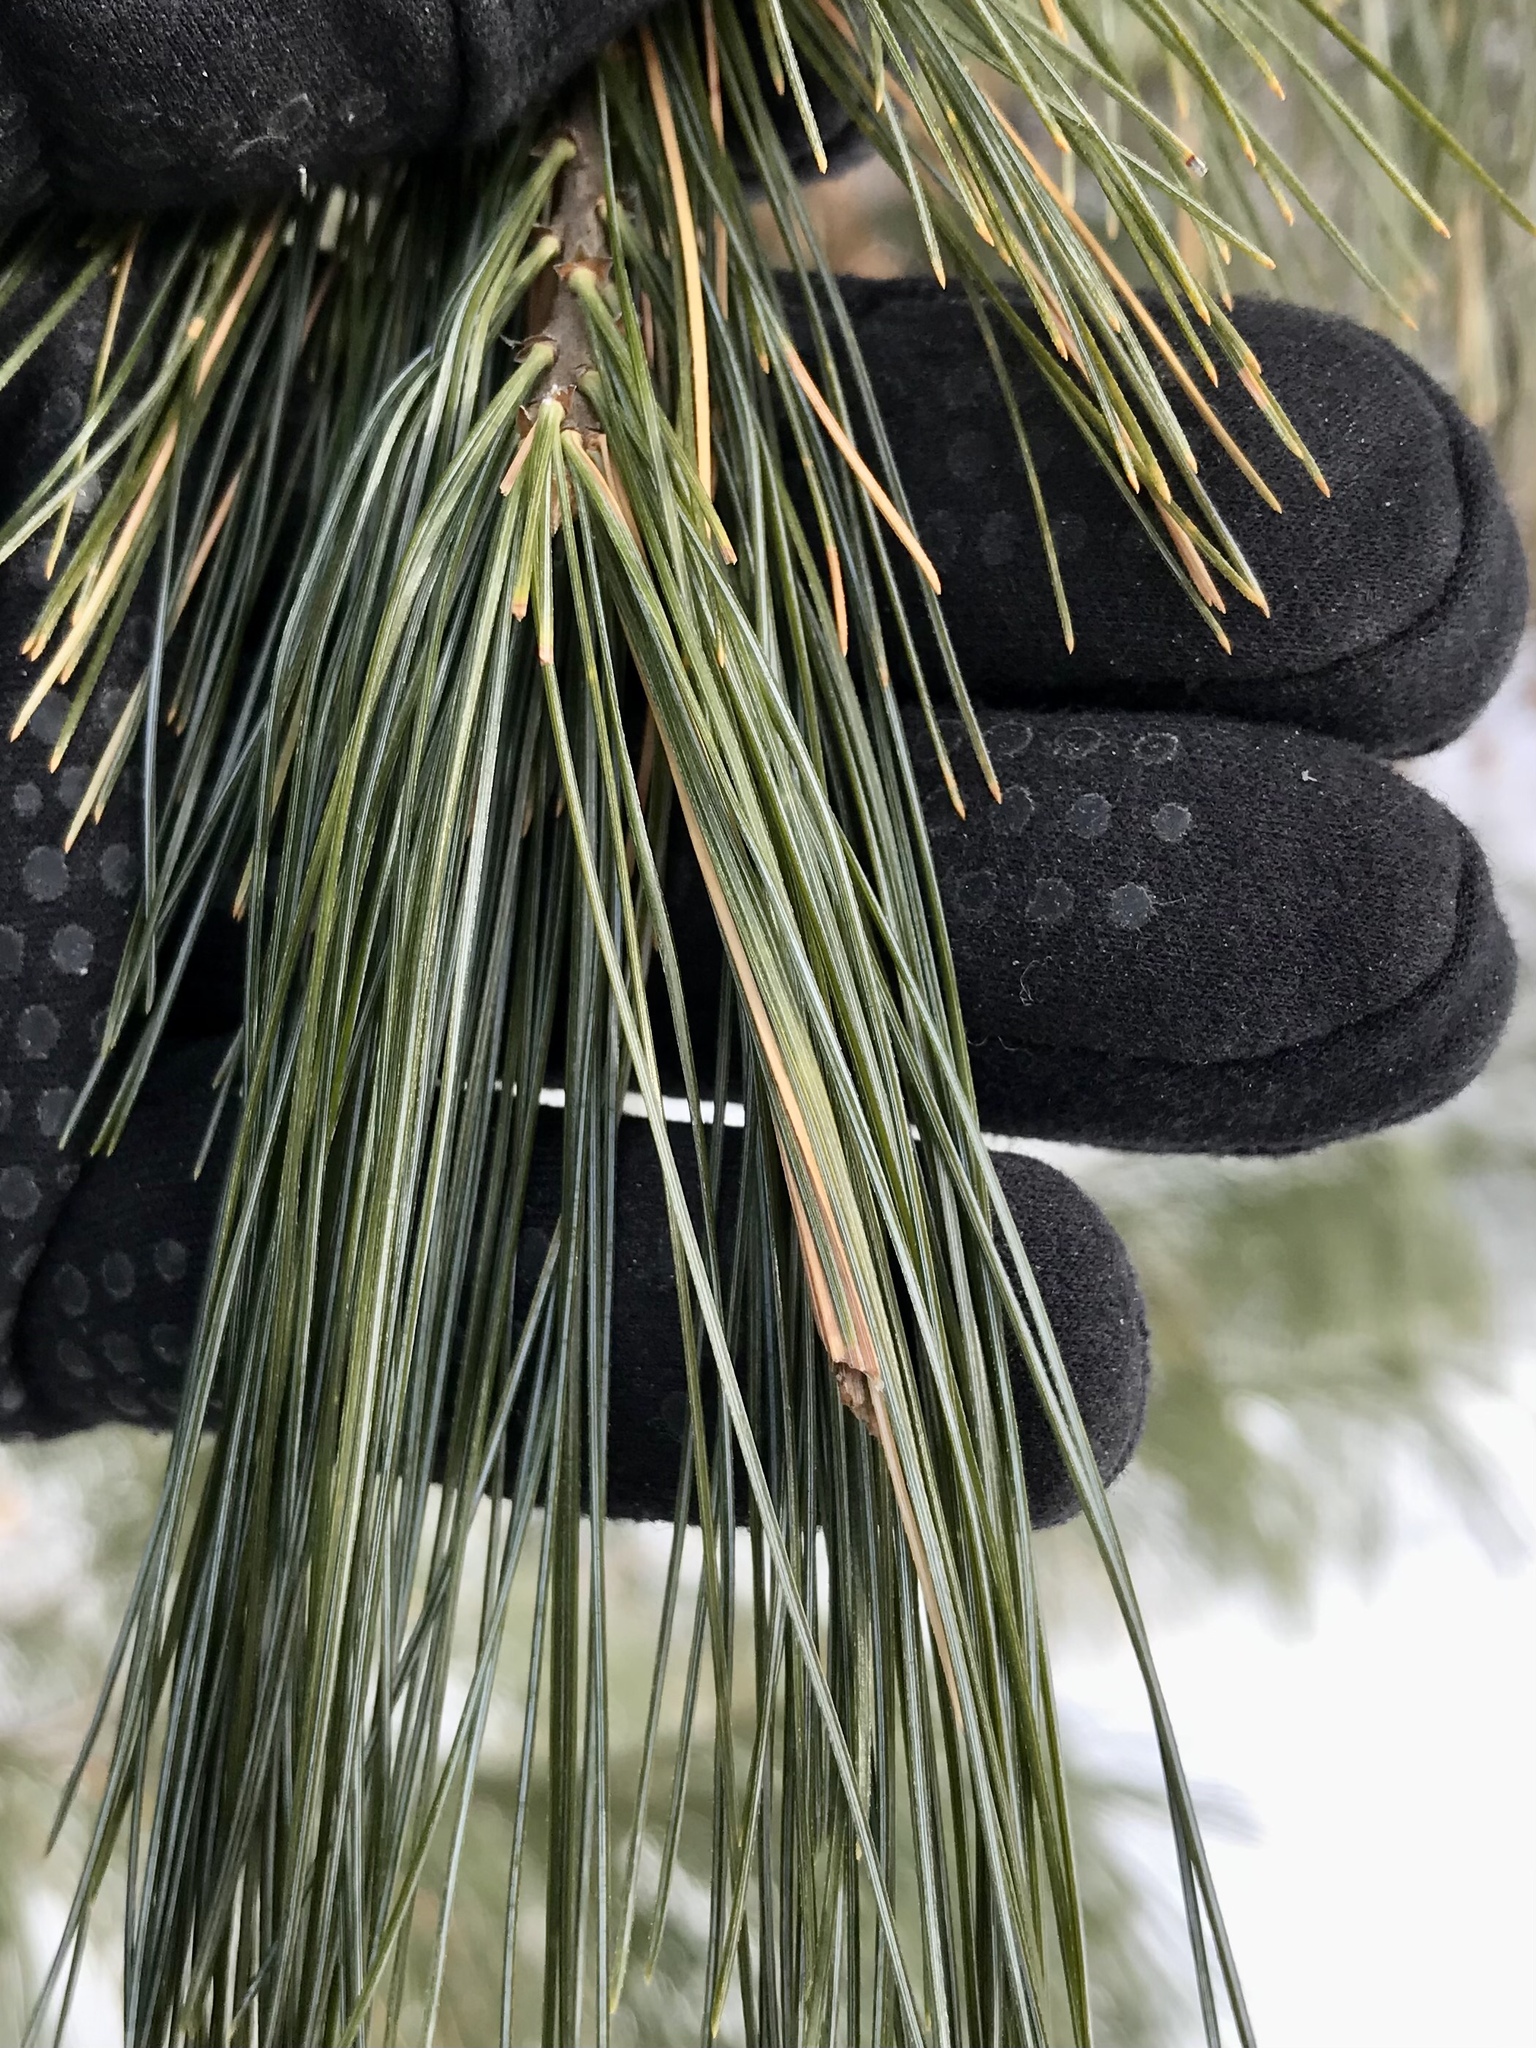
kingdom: Animalia
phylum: Arthropoda
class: Insecta
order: Lepidoptera
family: Tortricidae
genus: Argyrotaenia
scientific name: Argyrotaenia pinatubana
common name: Pine tube moth
